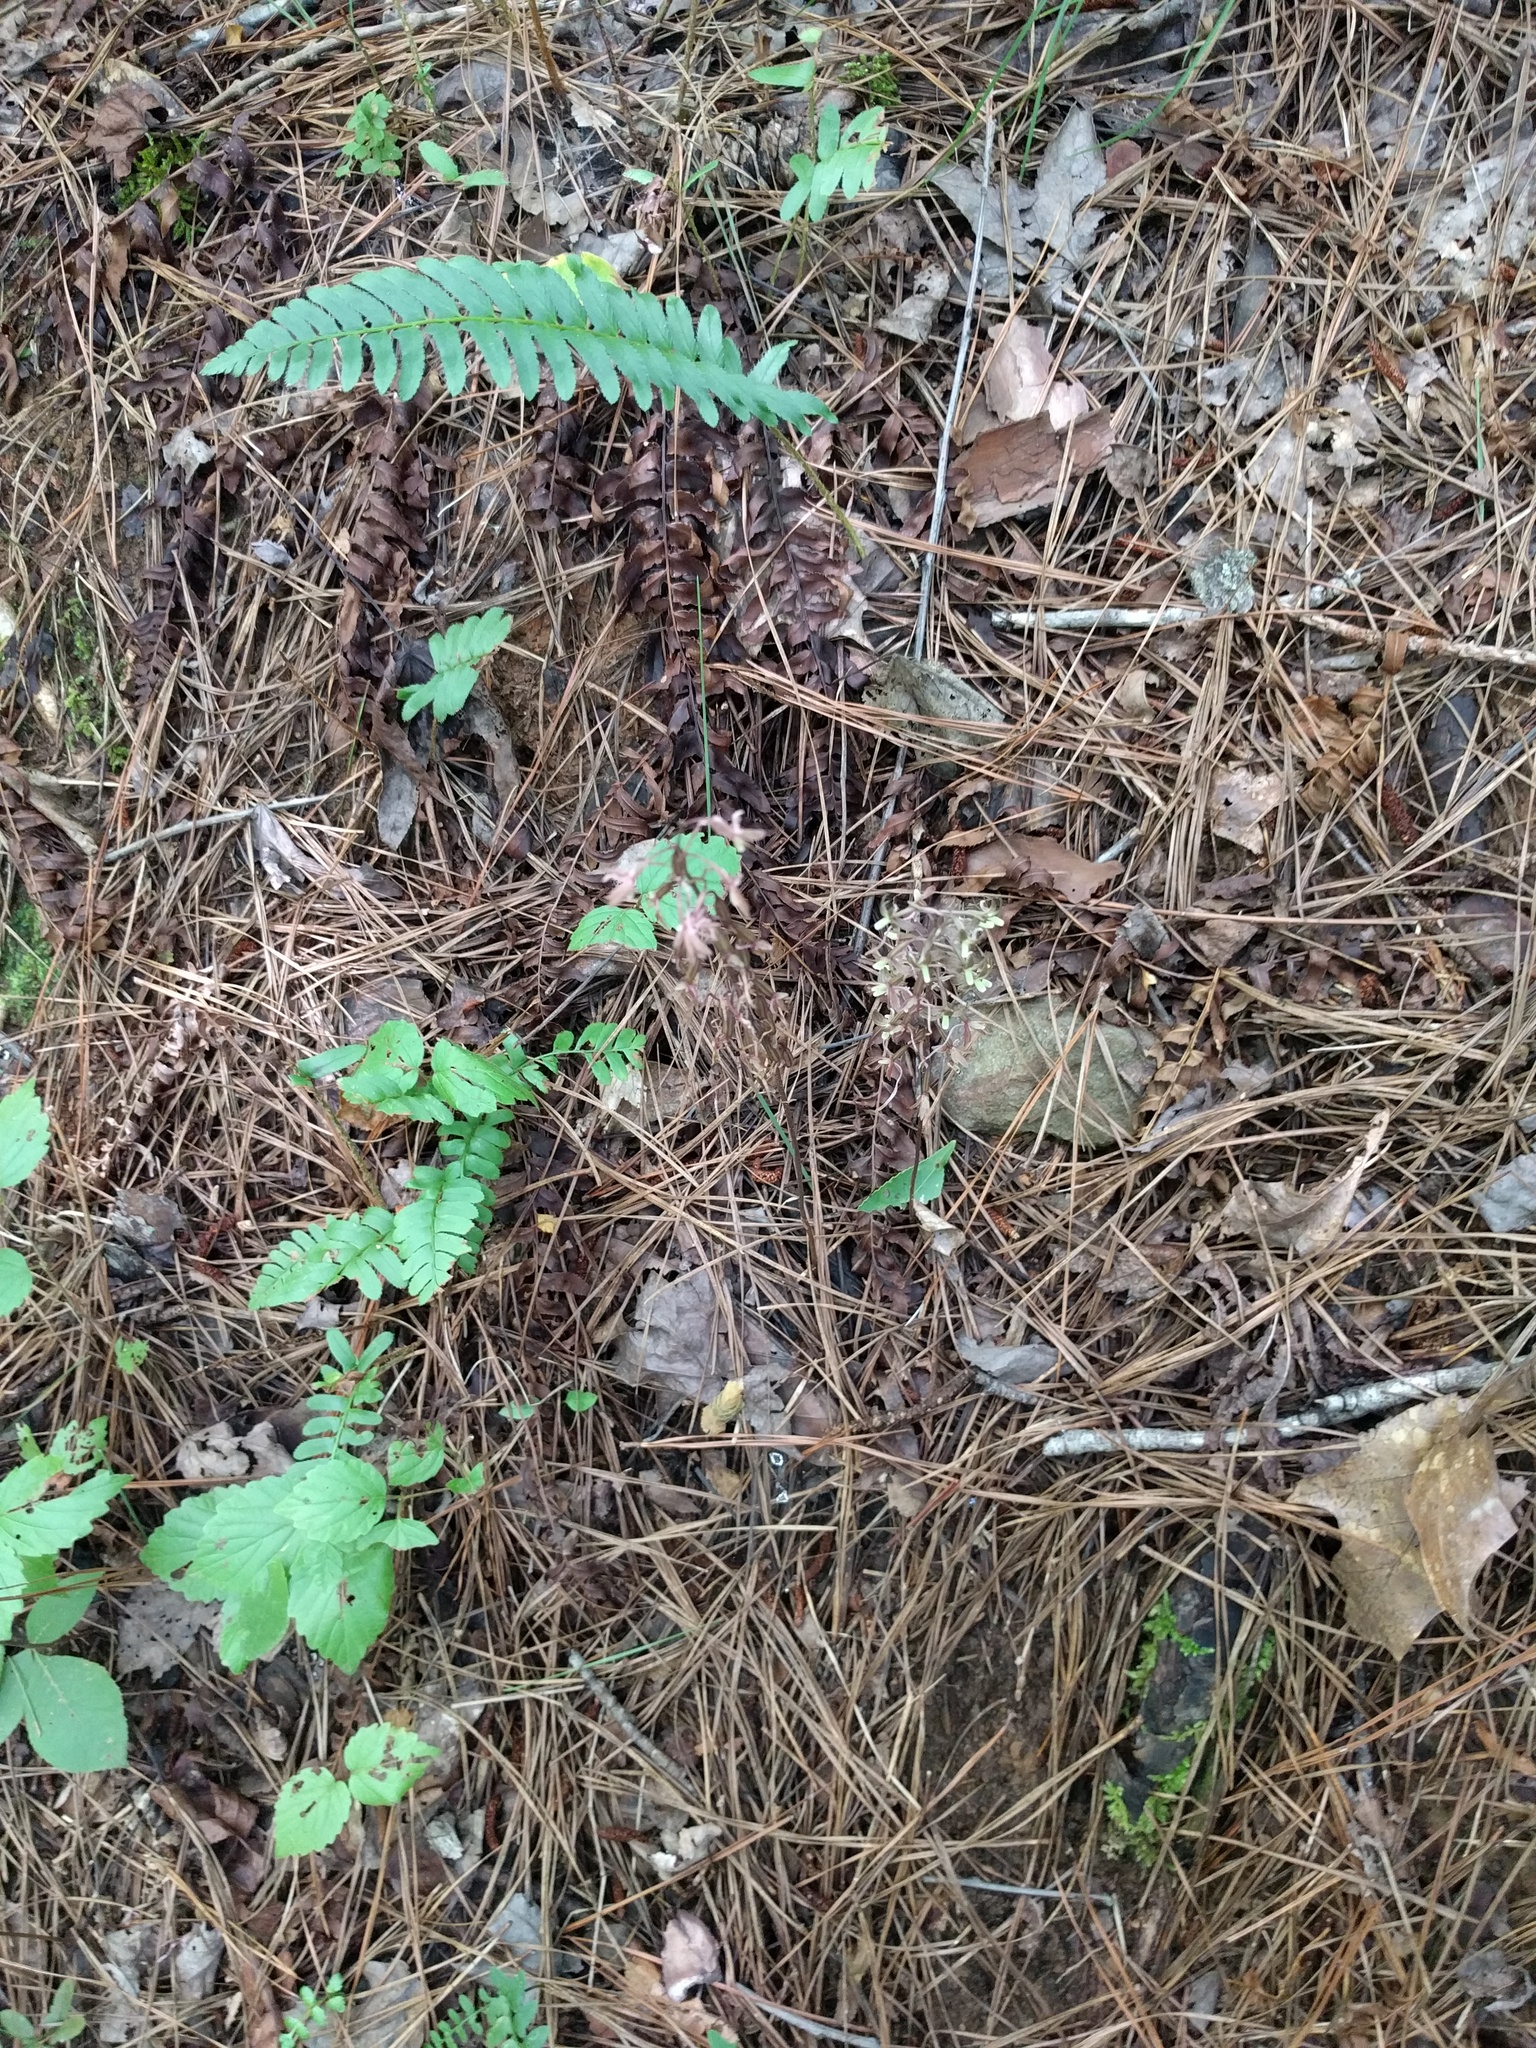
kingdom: Plantae
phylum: Tracheophyta
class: Liliopsida
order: Asparagales
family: Orchidaceae
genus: Tipularia
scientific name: Tipularia discolor
